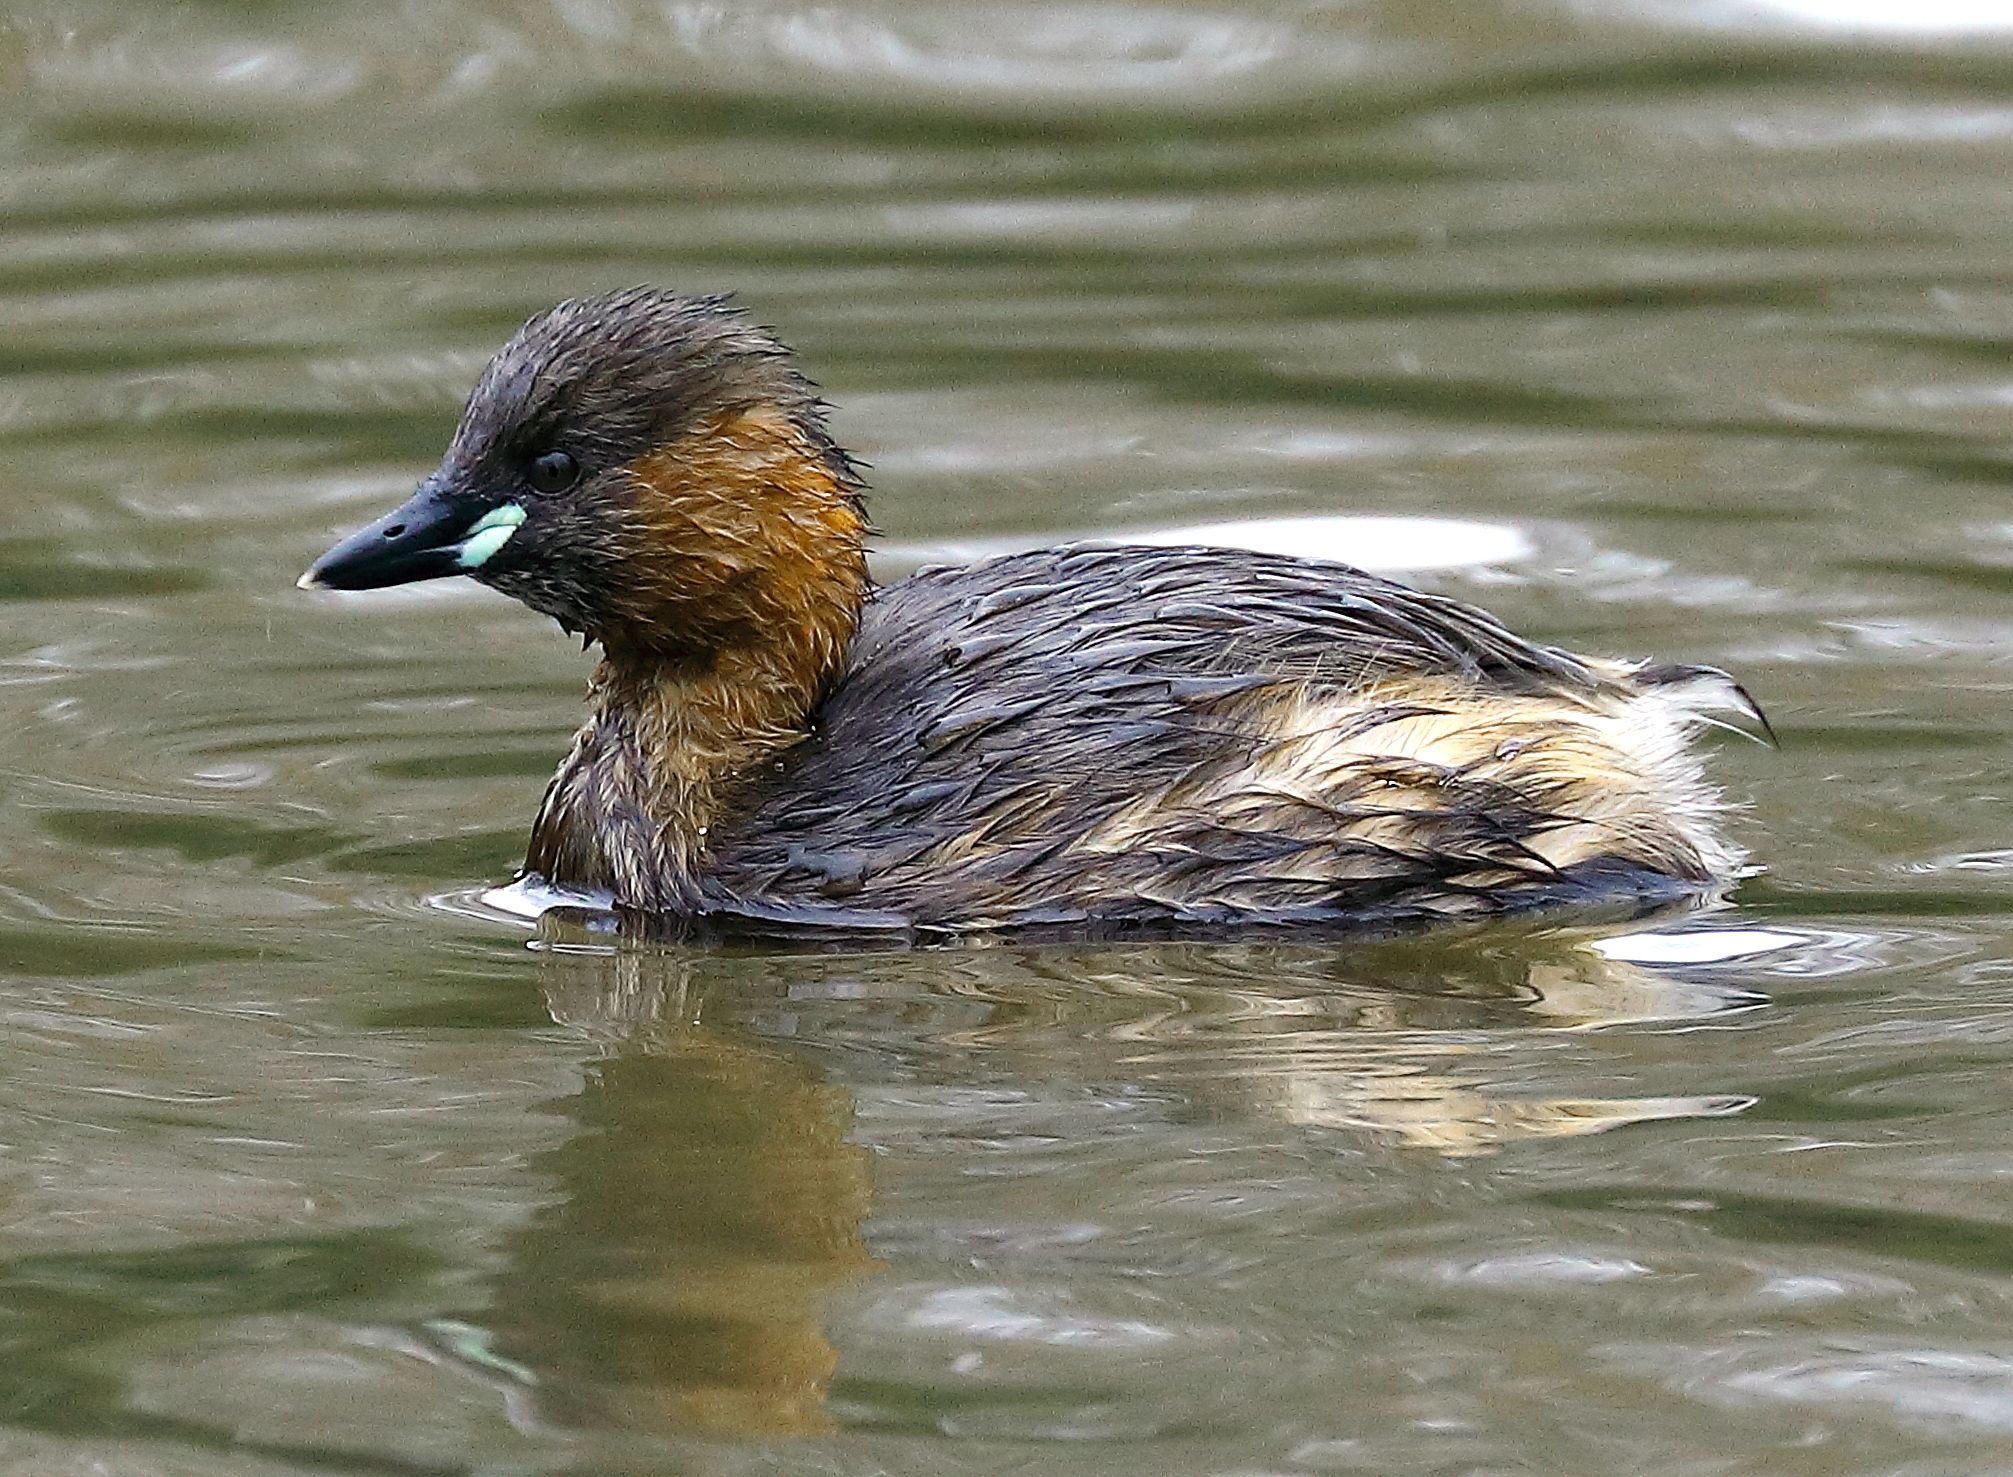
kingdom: Animalia
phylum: Chordata
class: Aves
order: Podicipediformes
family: Podicipedidae
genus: Tachybaptus
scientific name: Tachybaptus ruficollis
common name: Little grebe
